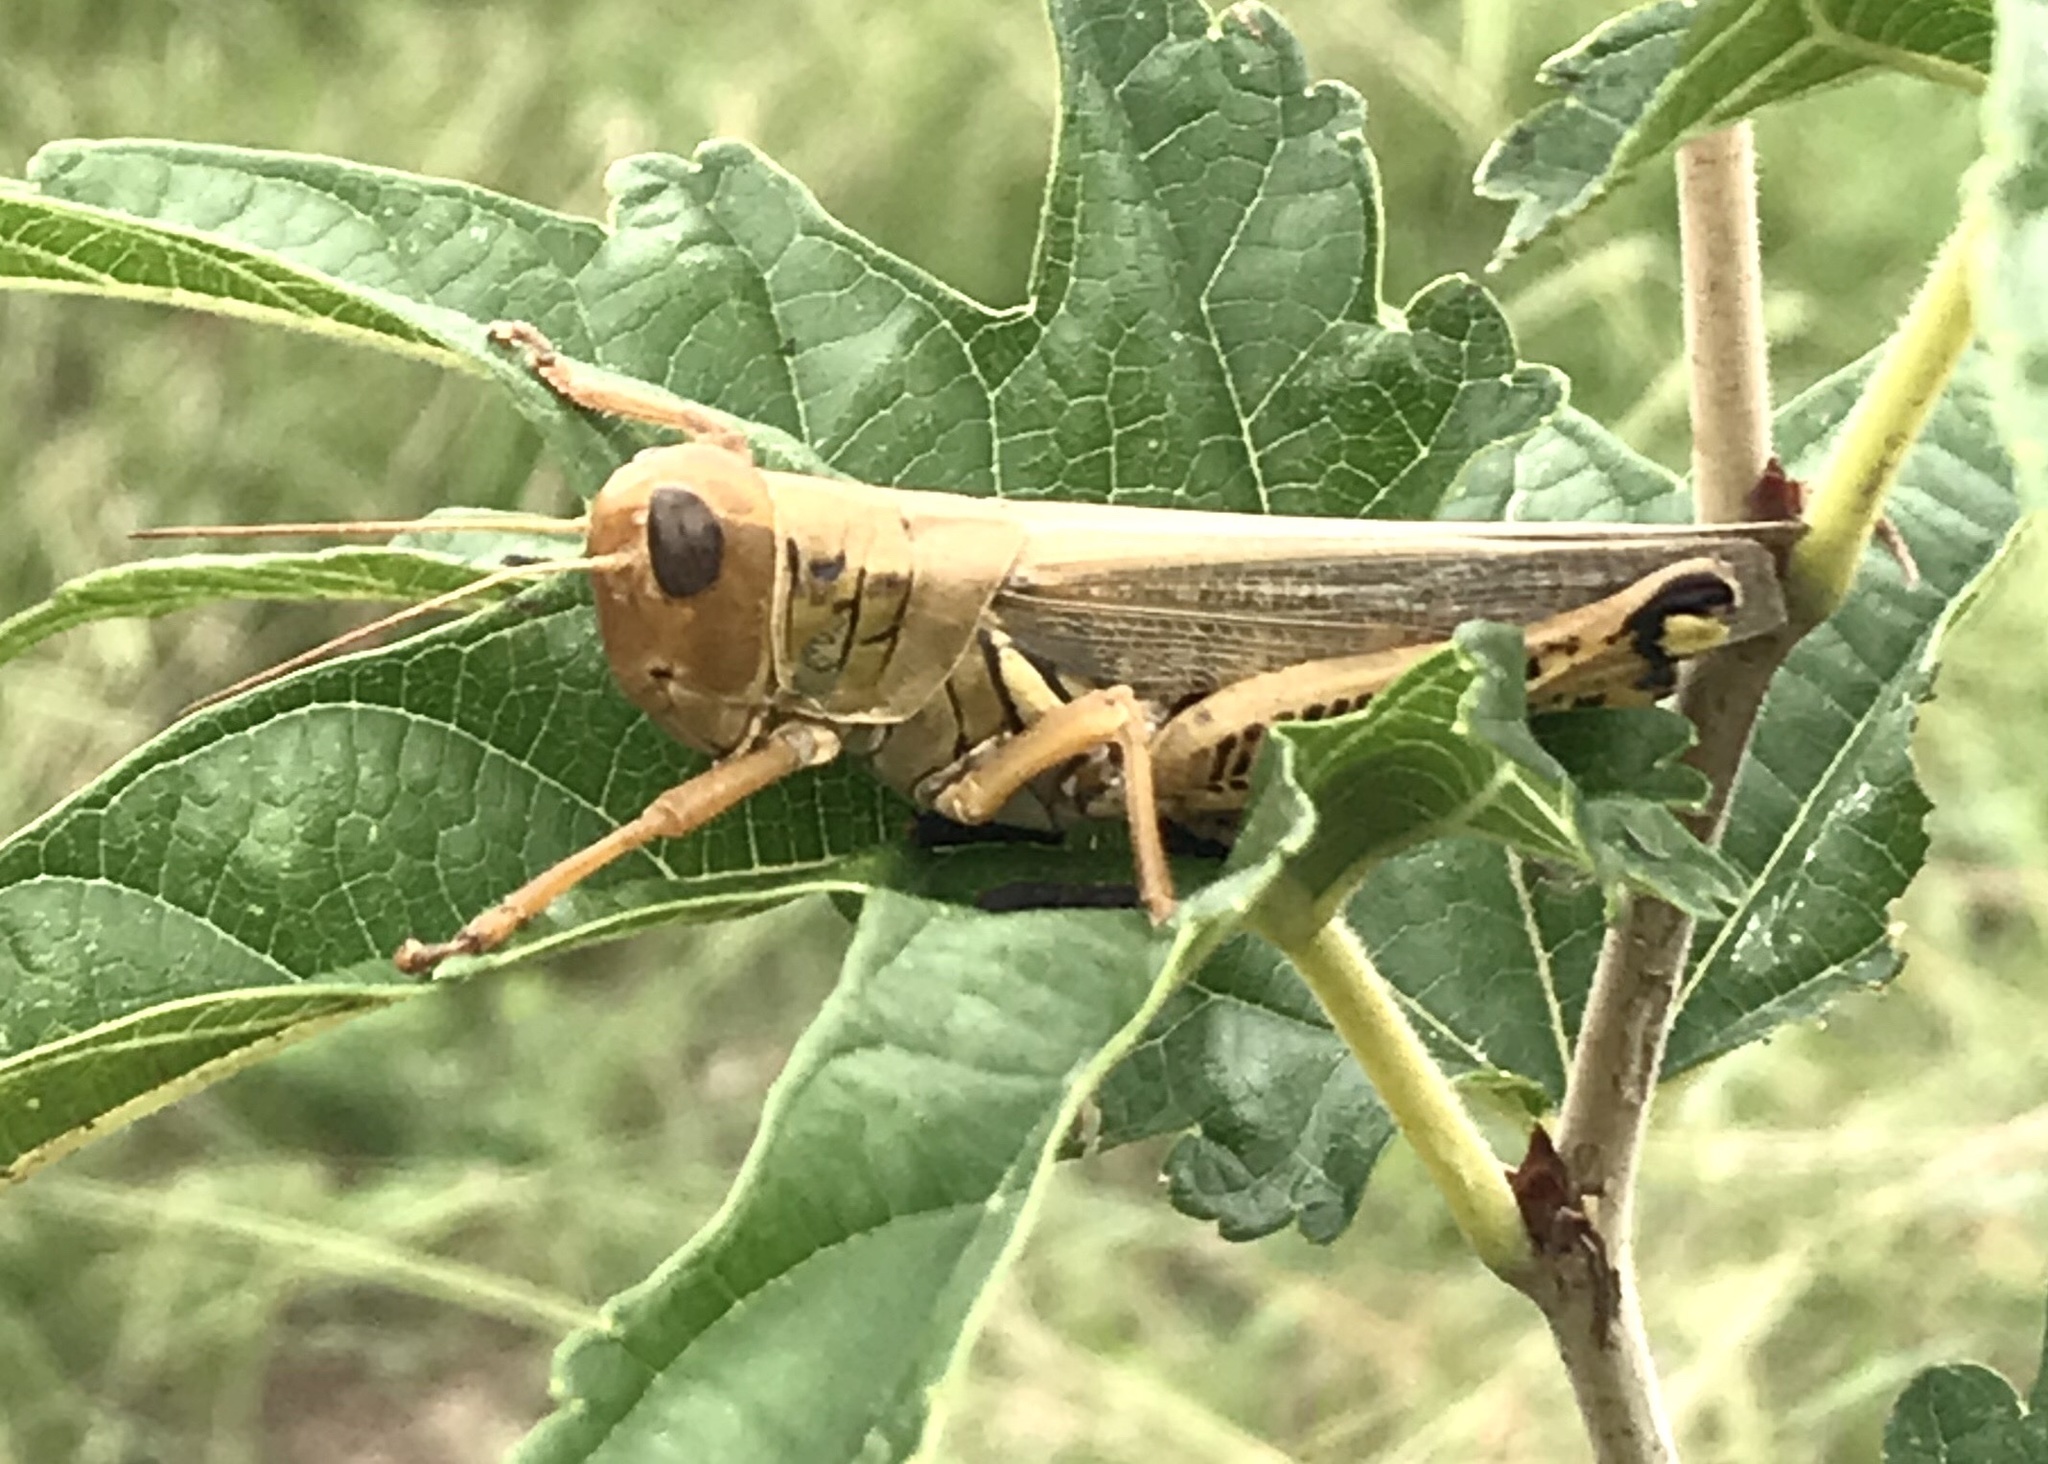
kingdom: Animalia
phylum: Arthropoda
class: Insecta
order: Orthoptera
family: Acrididae
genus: Melanoplus
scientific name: Melanoplus differentialis
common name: Differential grasshopper
